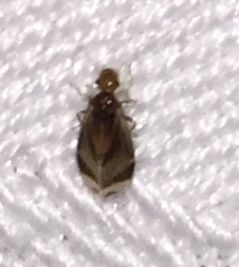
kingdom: Animalia
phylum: Arthropoda
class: Insecta
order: Psocodea
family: Amphipsocidae
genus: Polypsocus
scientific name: Polypsocus corruptus
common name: Corrupt barklouse
